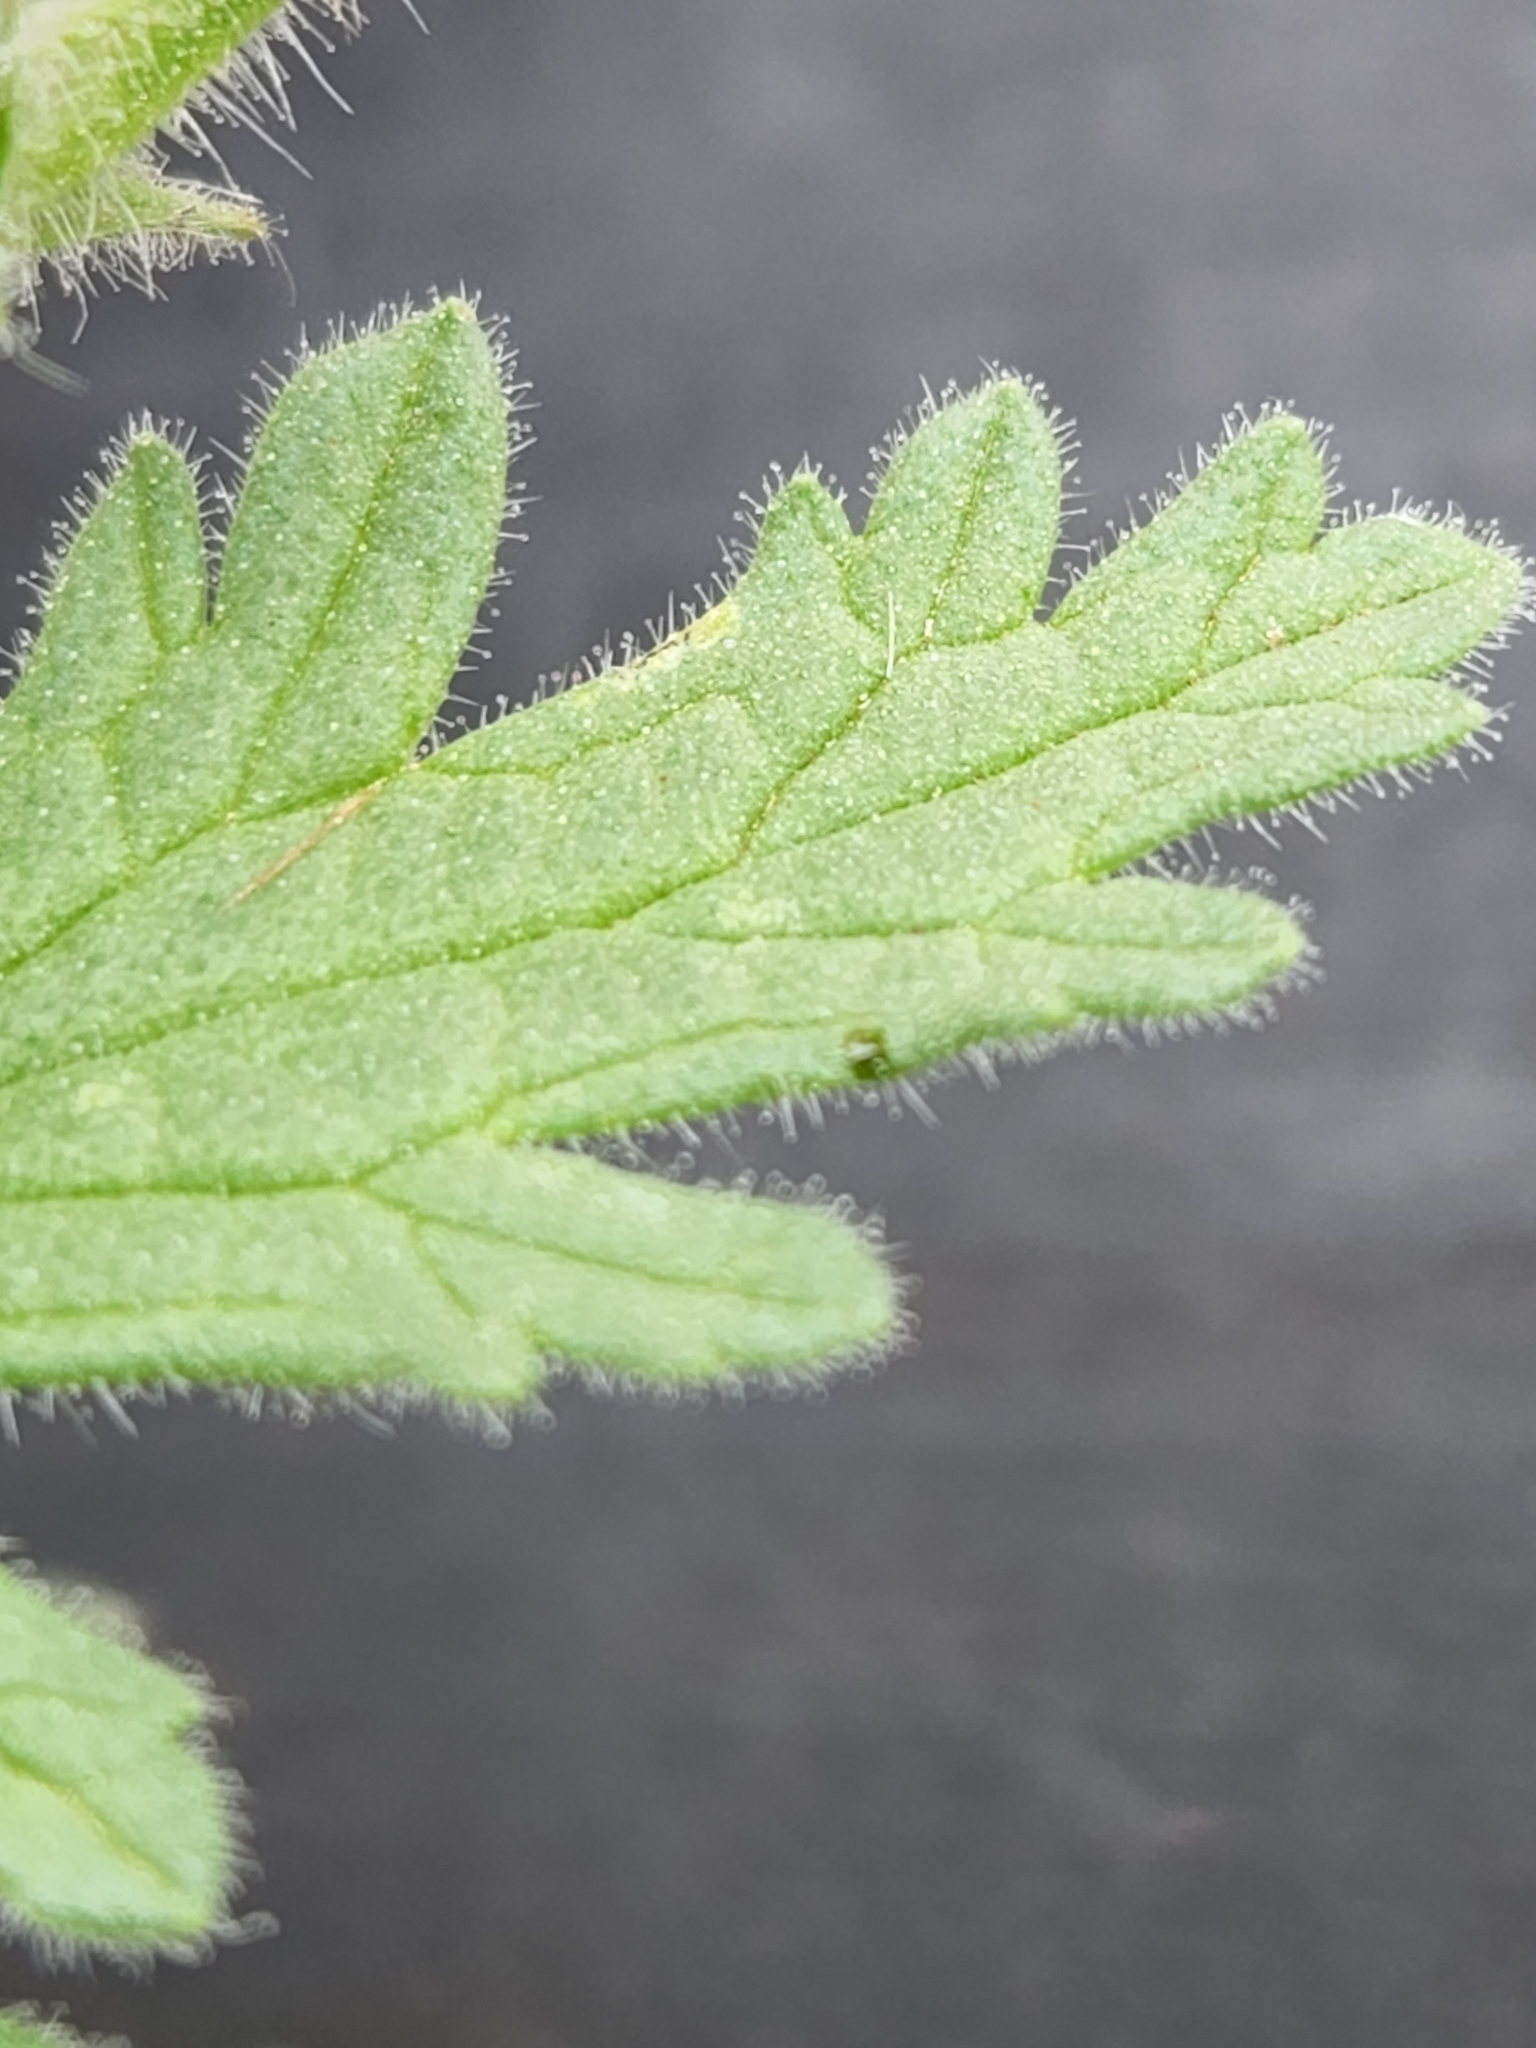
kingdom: Plantae
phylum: Tracheophyta
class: Magnoliopsida
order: Lamiales
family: Verbenaceae
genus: Verbena
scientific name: Verbena tumidula
